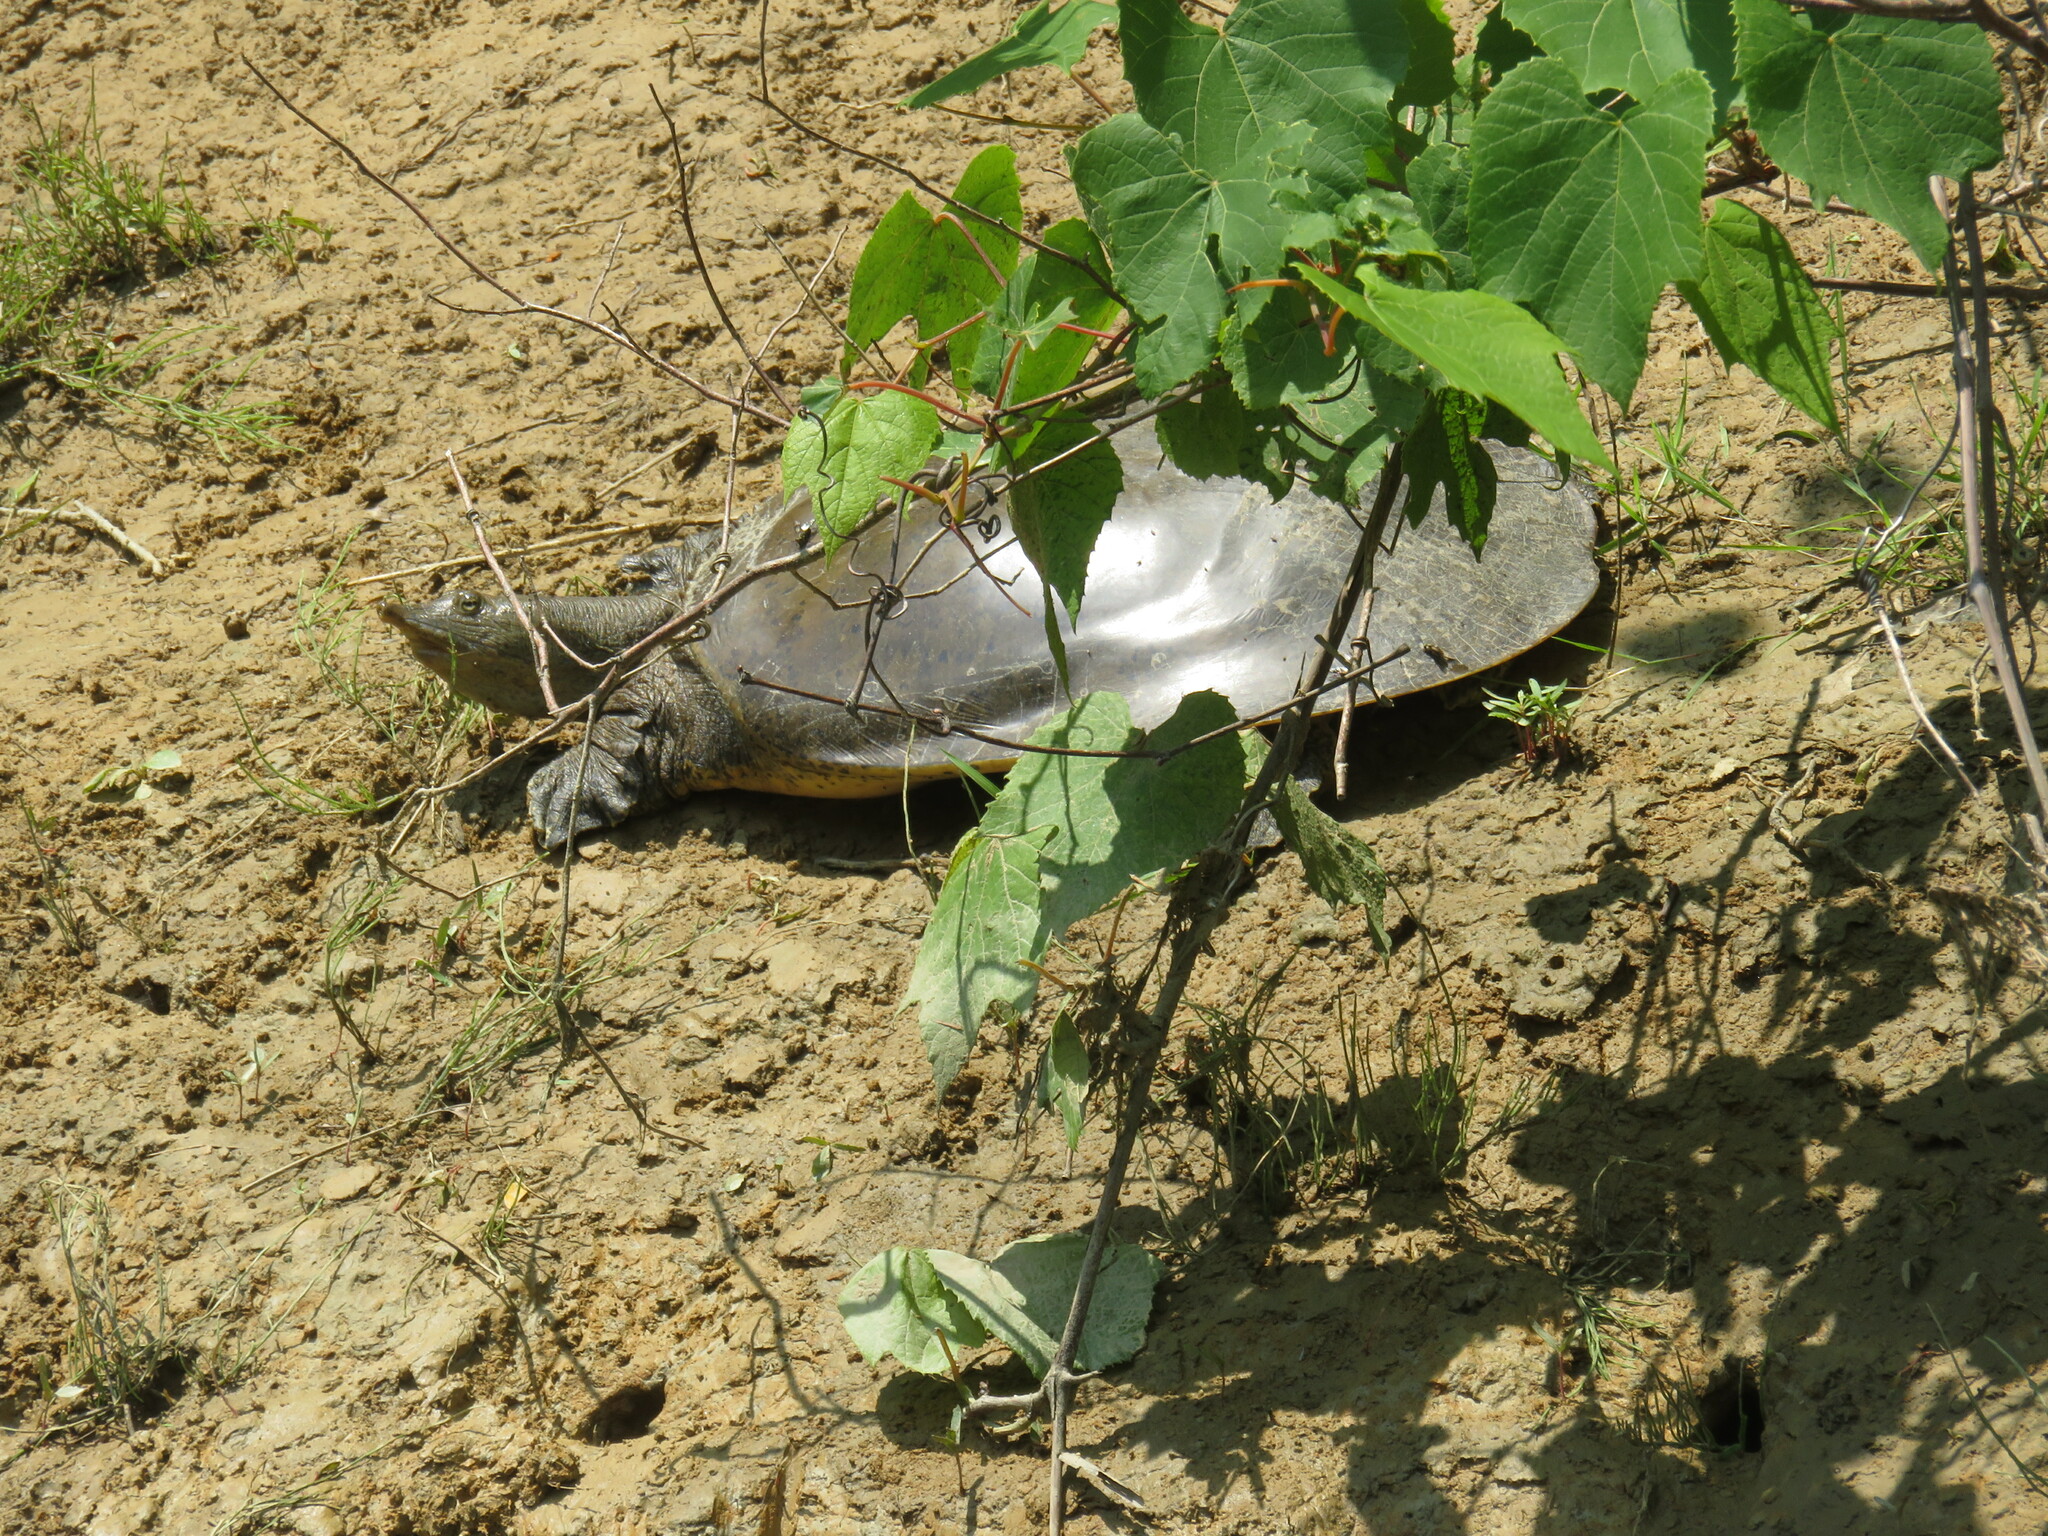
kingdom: Animalia
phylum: Chordata
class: Testudines
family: Trionychidae
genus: Apalone
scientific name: Apalone spinifera
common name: Spiny softshell turtle
